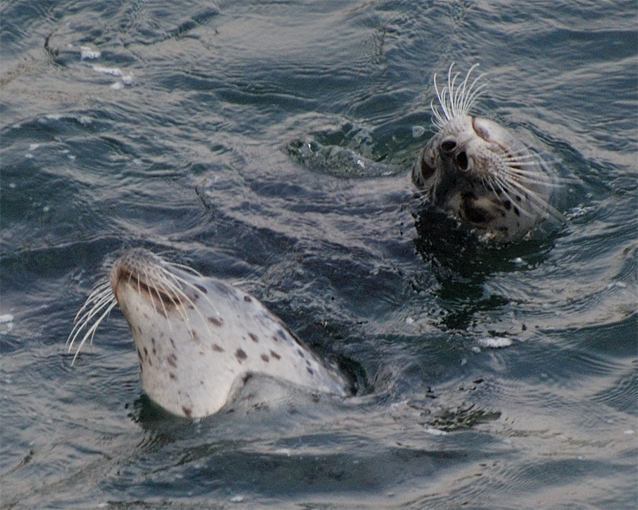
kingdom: Animalia
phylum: Chordata
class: Mammalia
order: Carnivora
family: Phocidae
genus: Phoca
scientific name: Phoca vitulina
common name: Harbor seal
